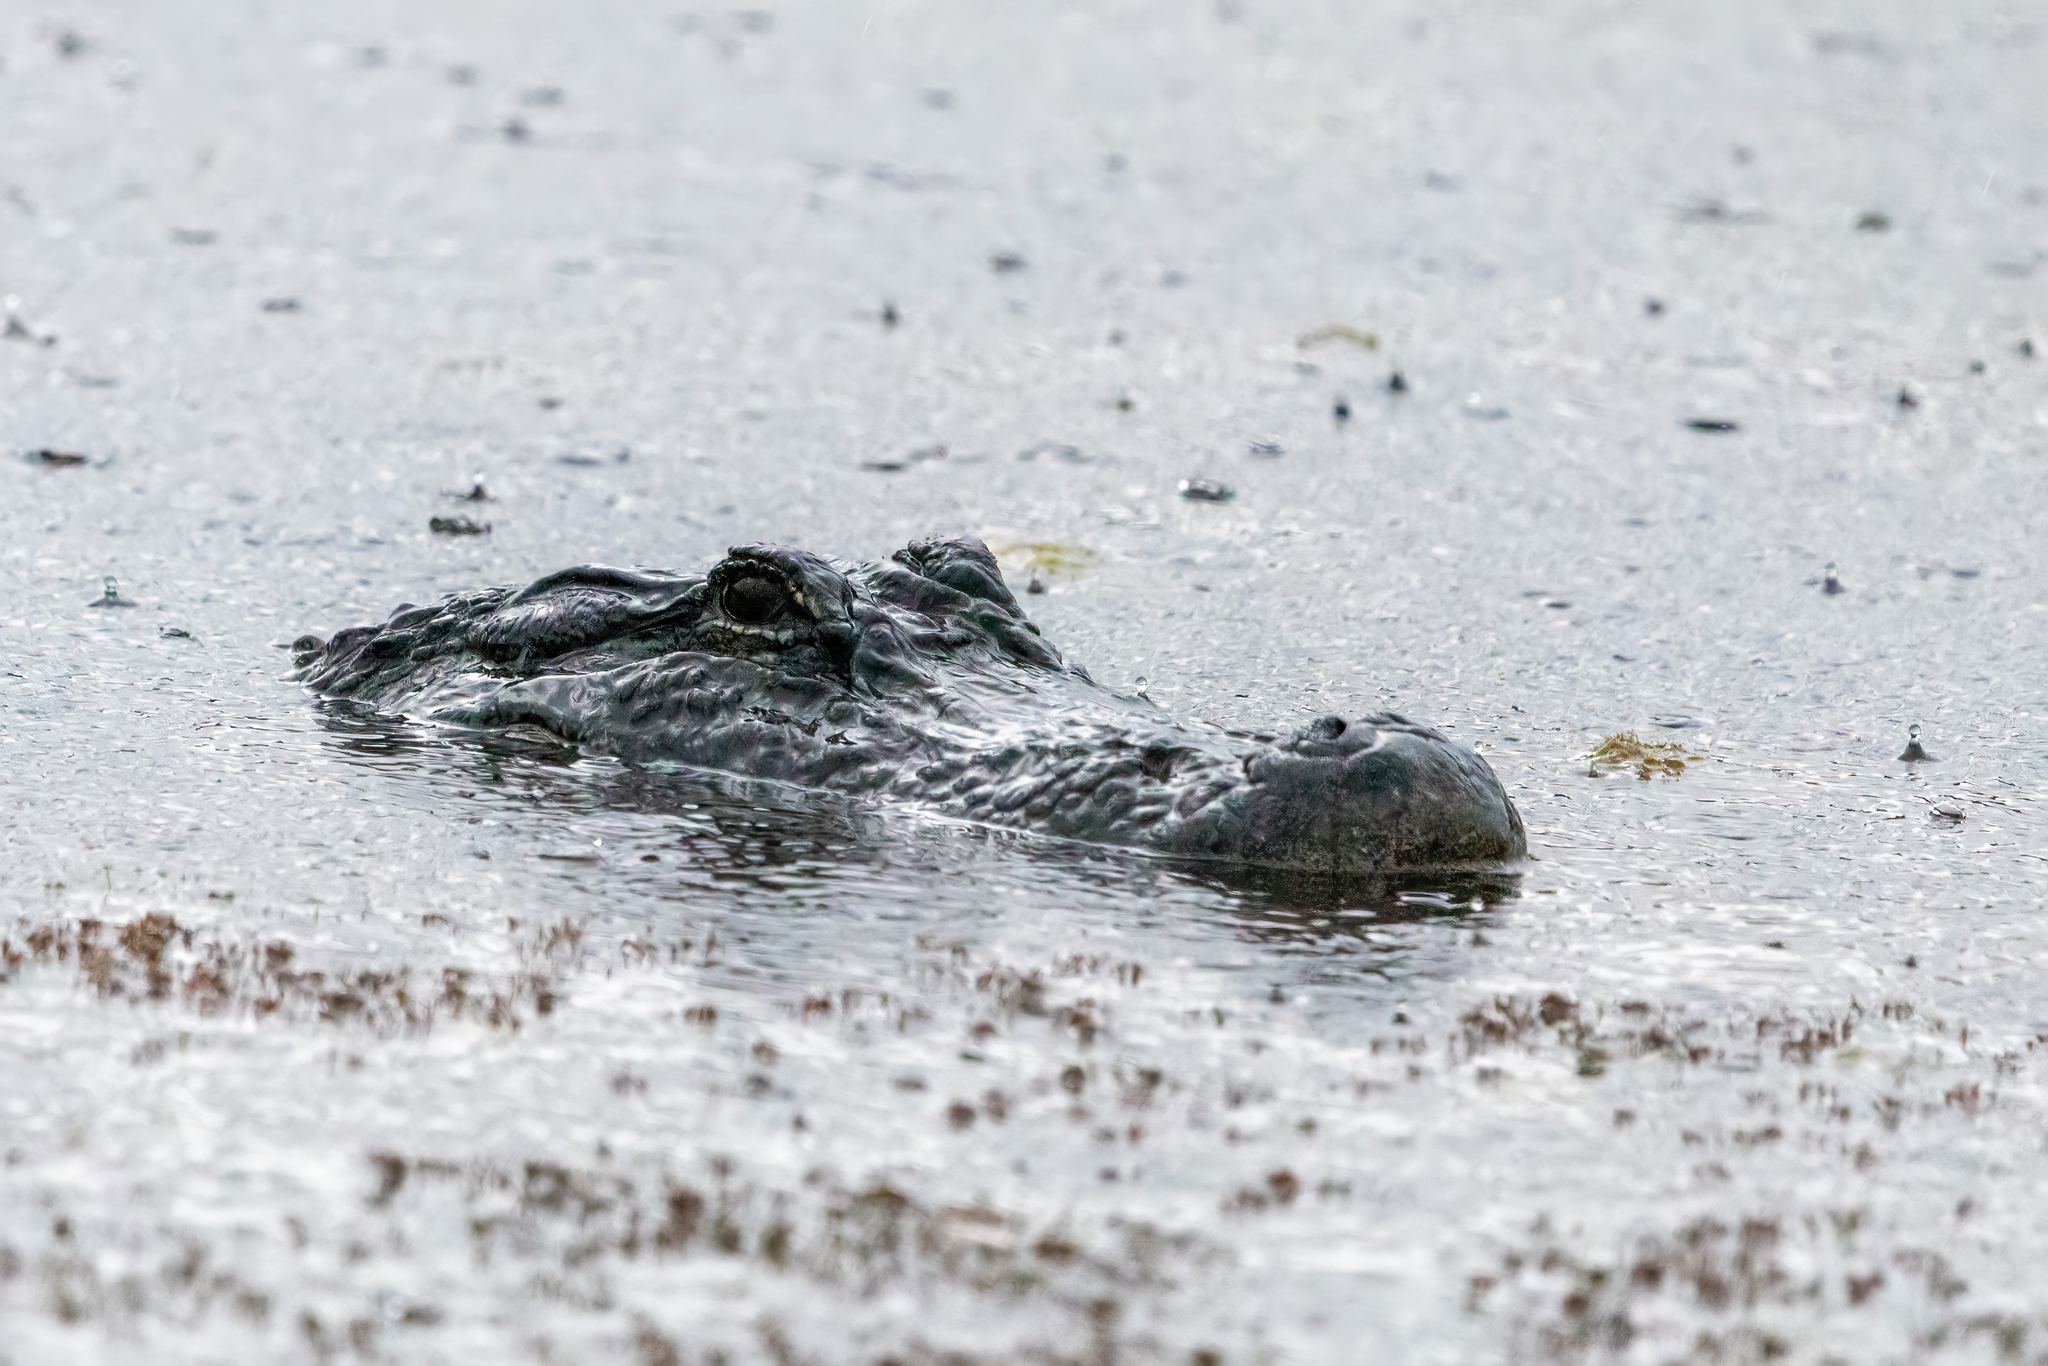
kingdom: Animalia
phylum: Chordata
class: Crocodylia
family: Alligatoridae
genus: Alligator
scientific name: Alligator mississippiensis
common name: American alligator
